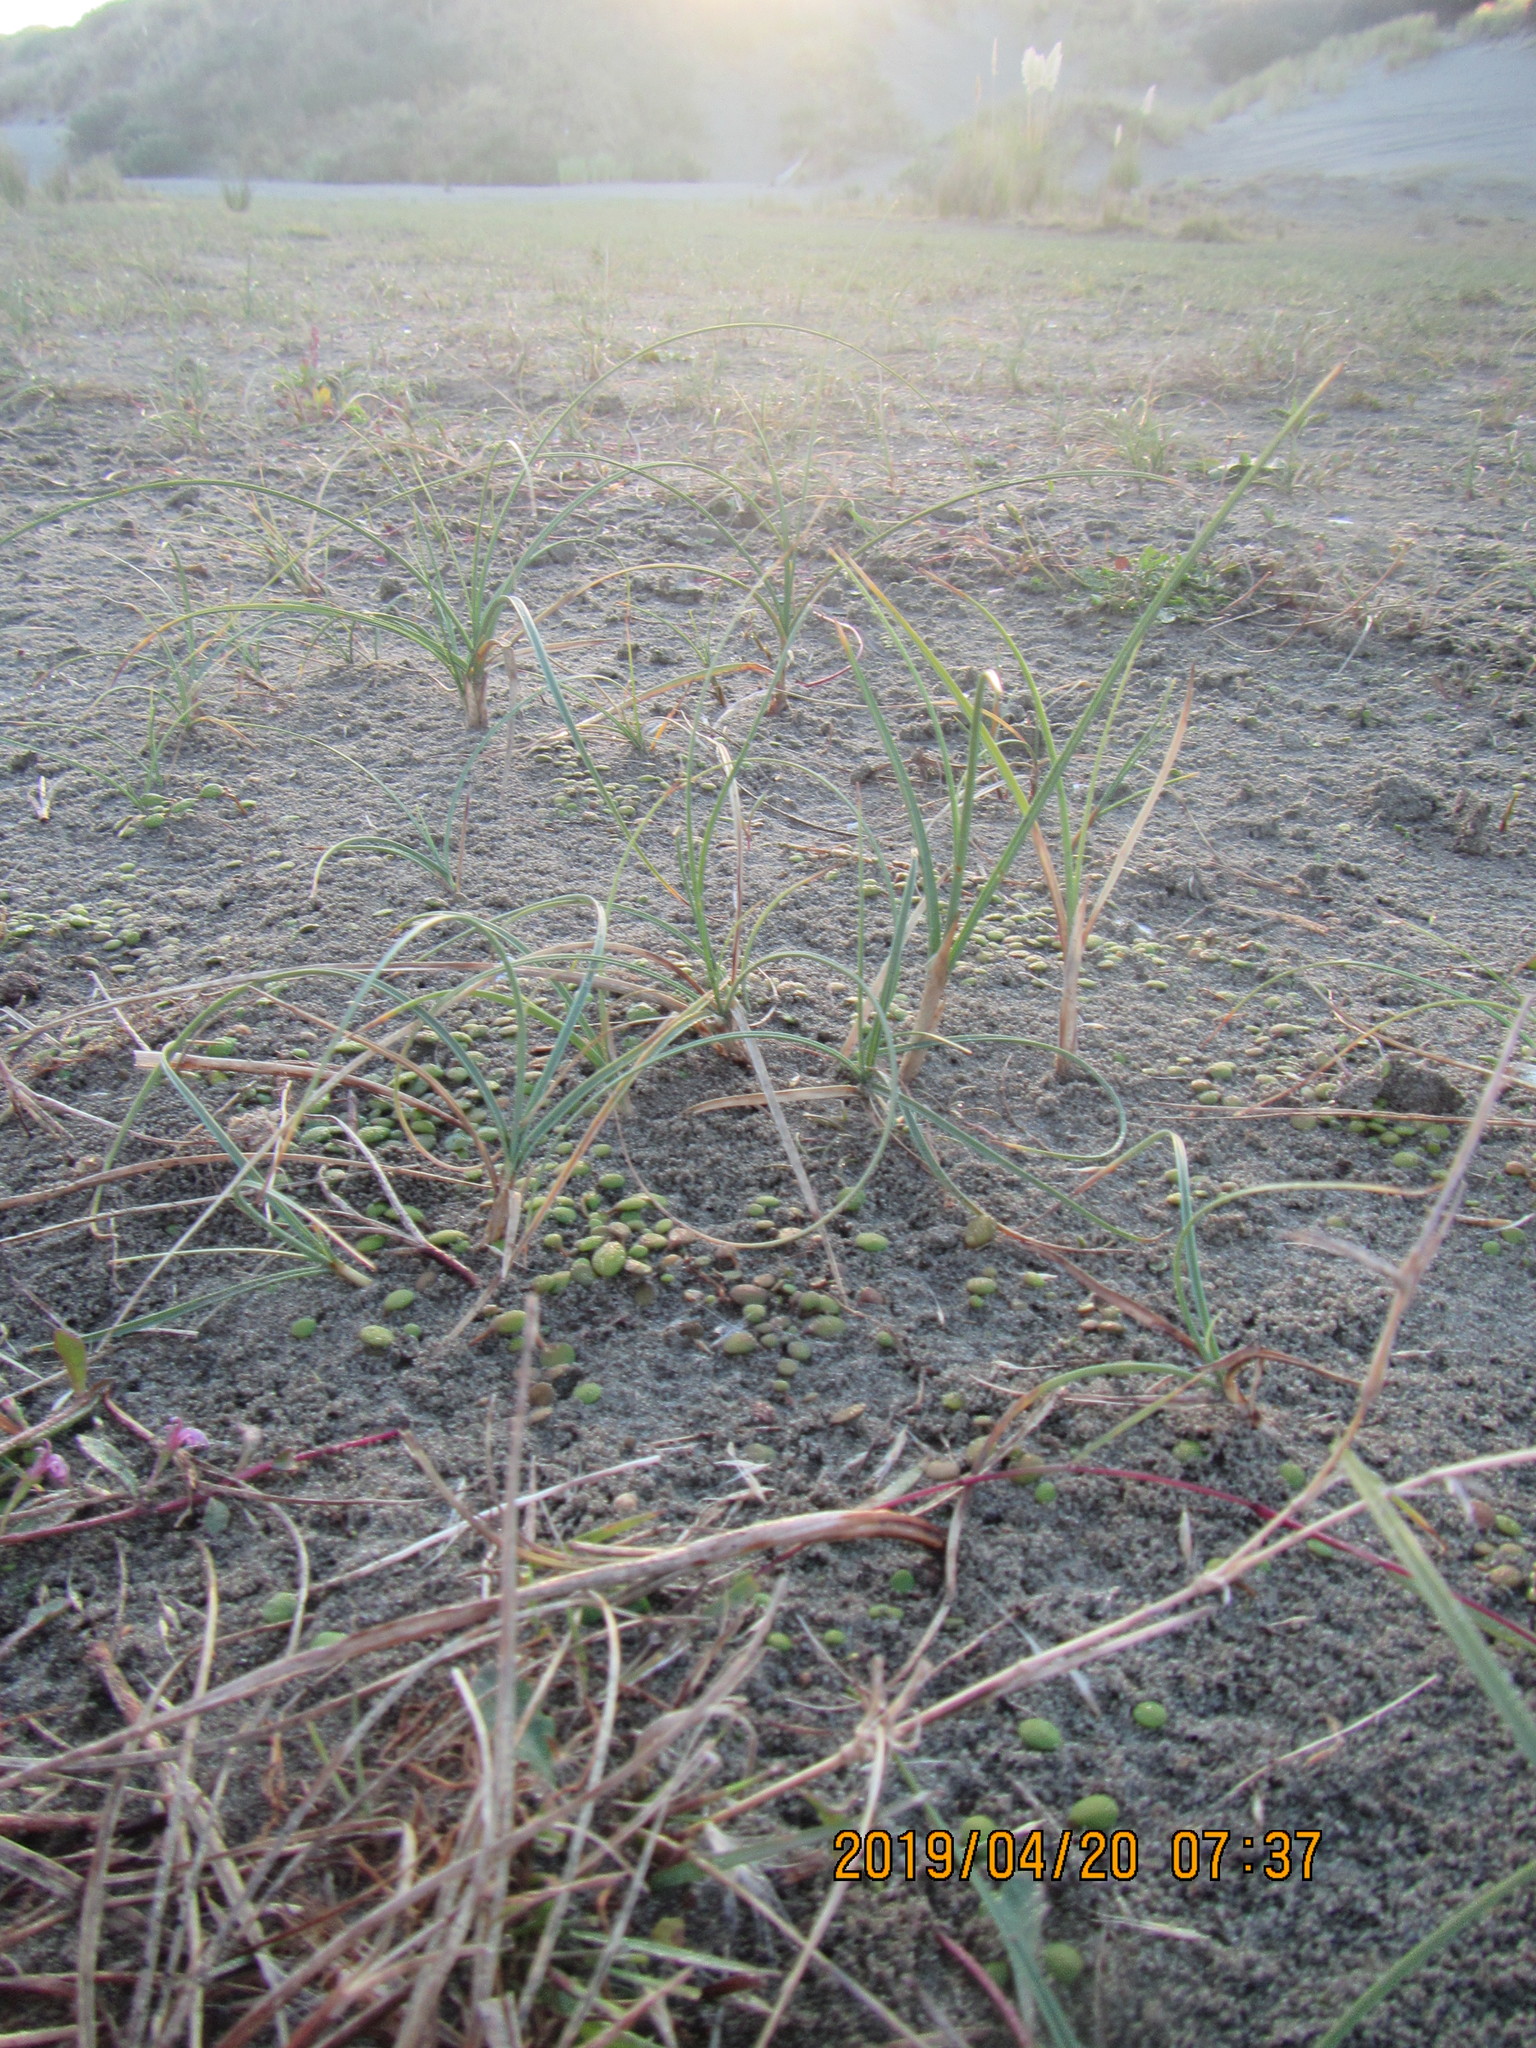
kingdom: Plantae
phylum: Tracheophyta
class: Liliopsida
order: Poales
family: Cyperaceae
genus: Carex
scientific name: Carex pumila
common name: Dwarf sedge
